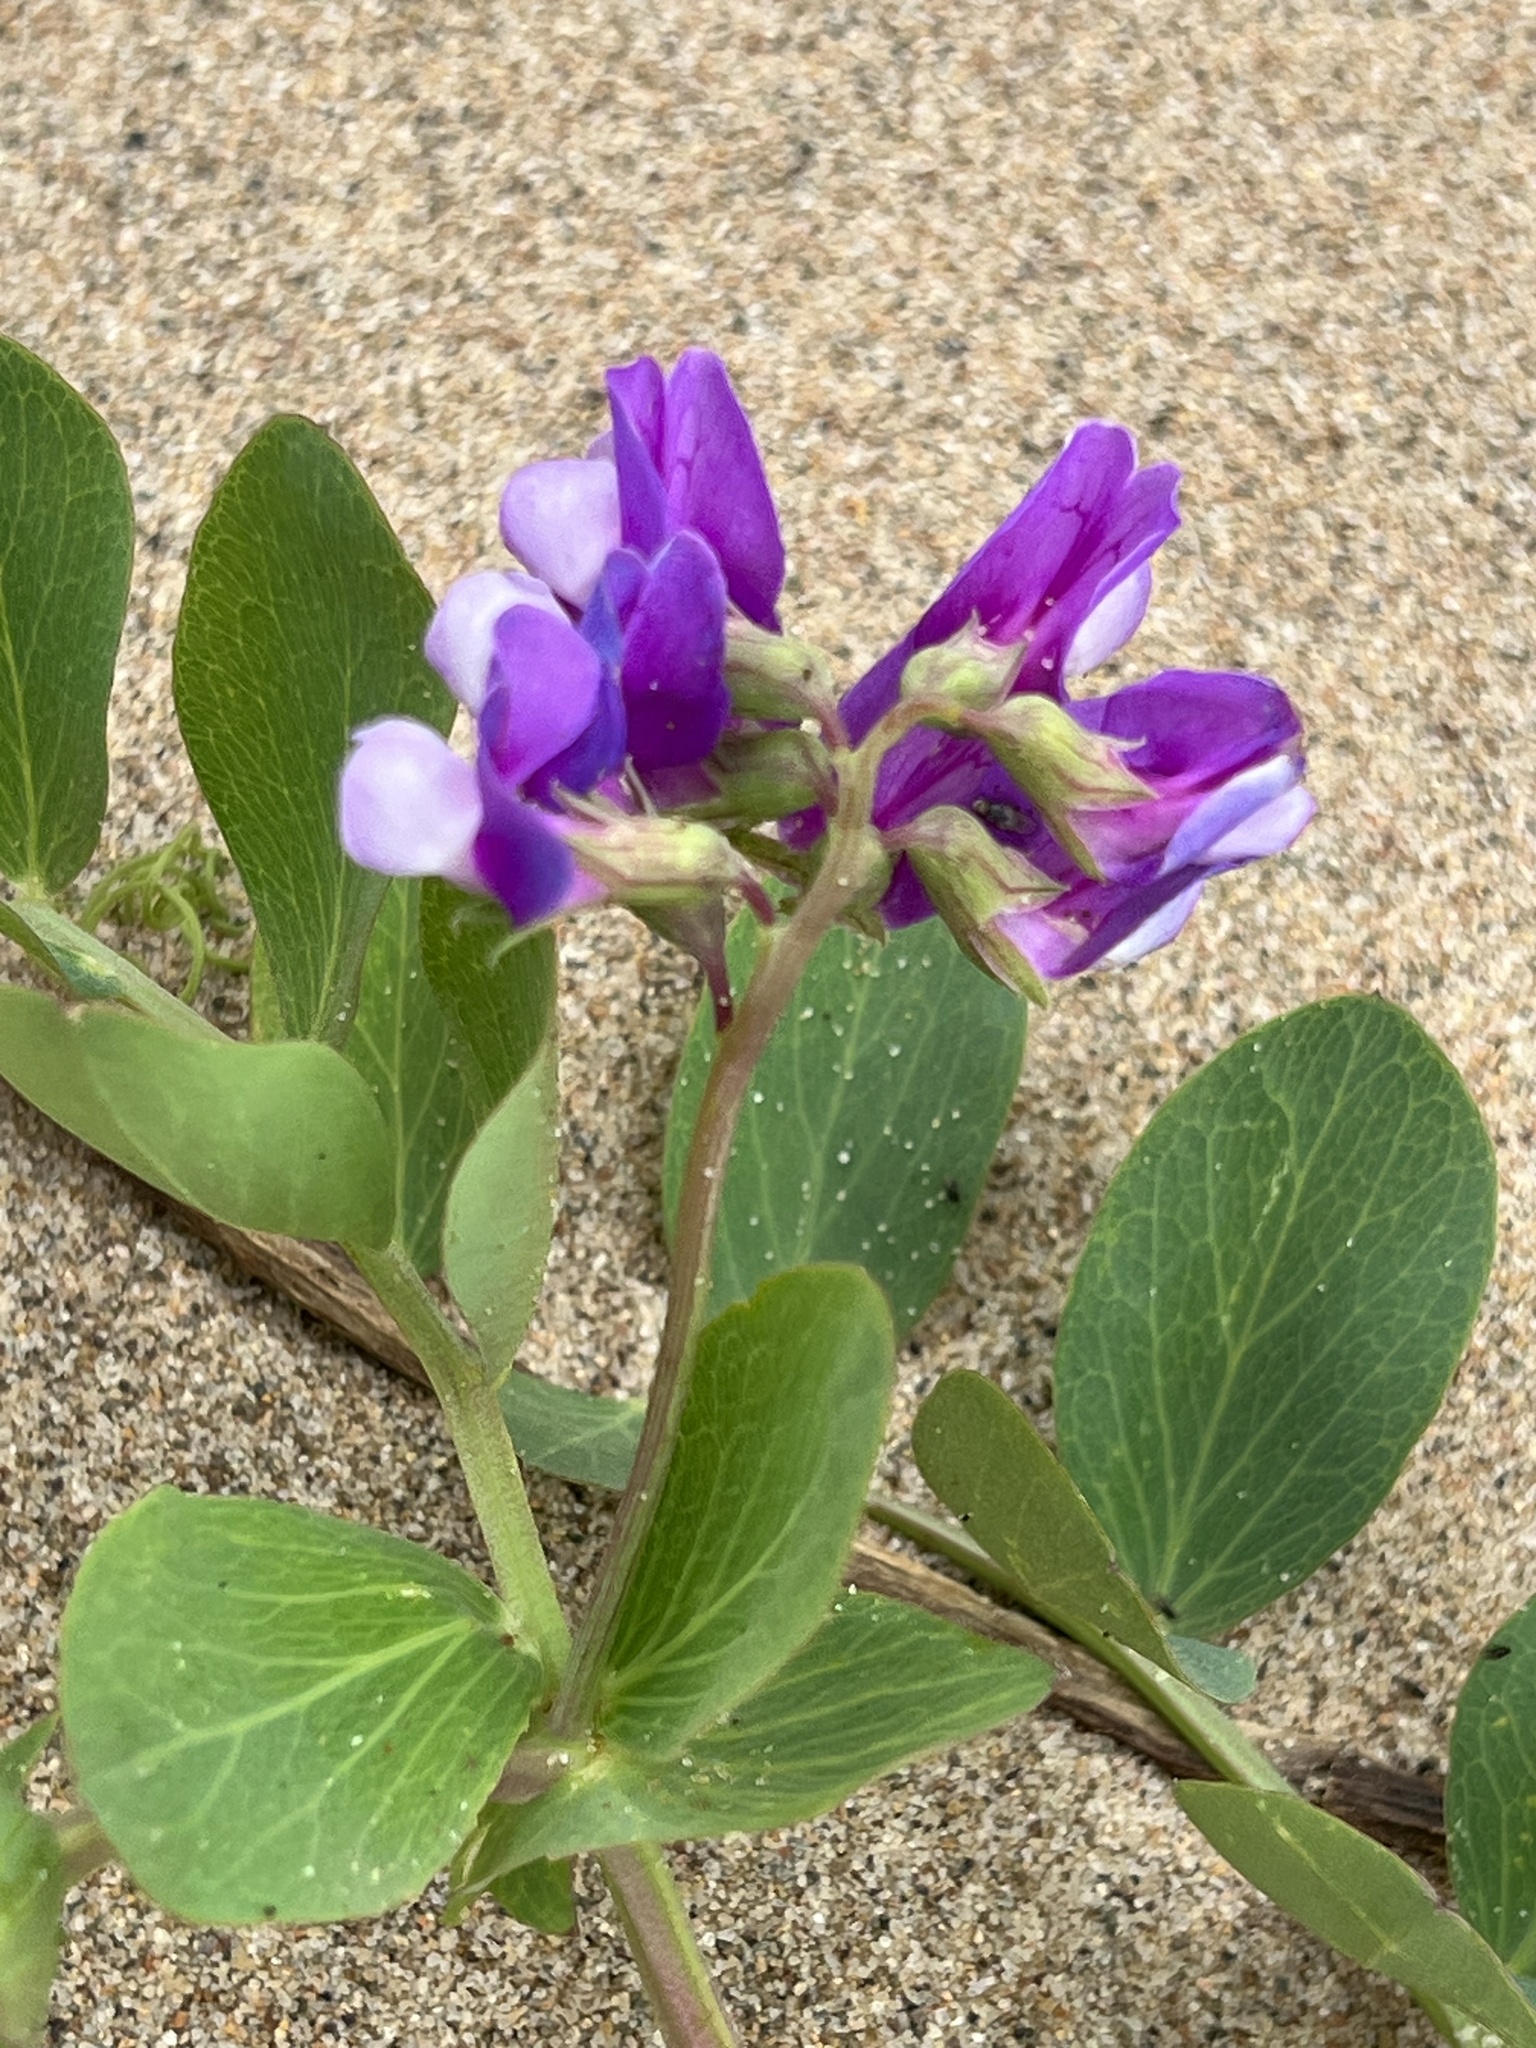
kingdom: Plantae
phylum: Tracheophyta
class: Magnoliopsida
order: Fabales
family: Fabaceae
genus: Lathyrus
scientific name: Lathyrus japonicus
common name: Sea pea
